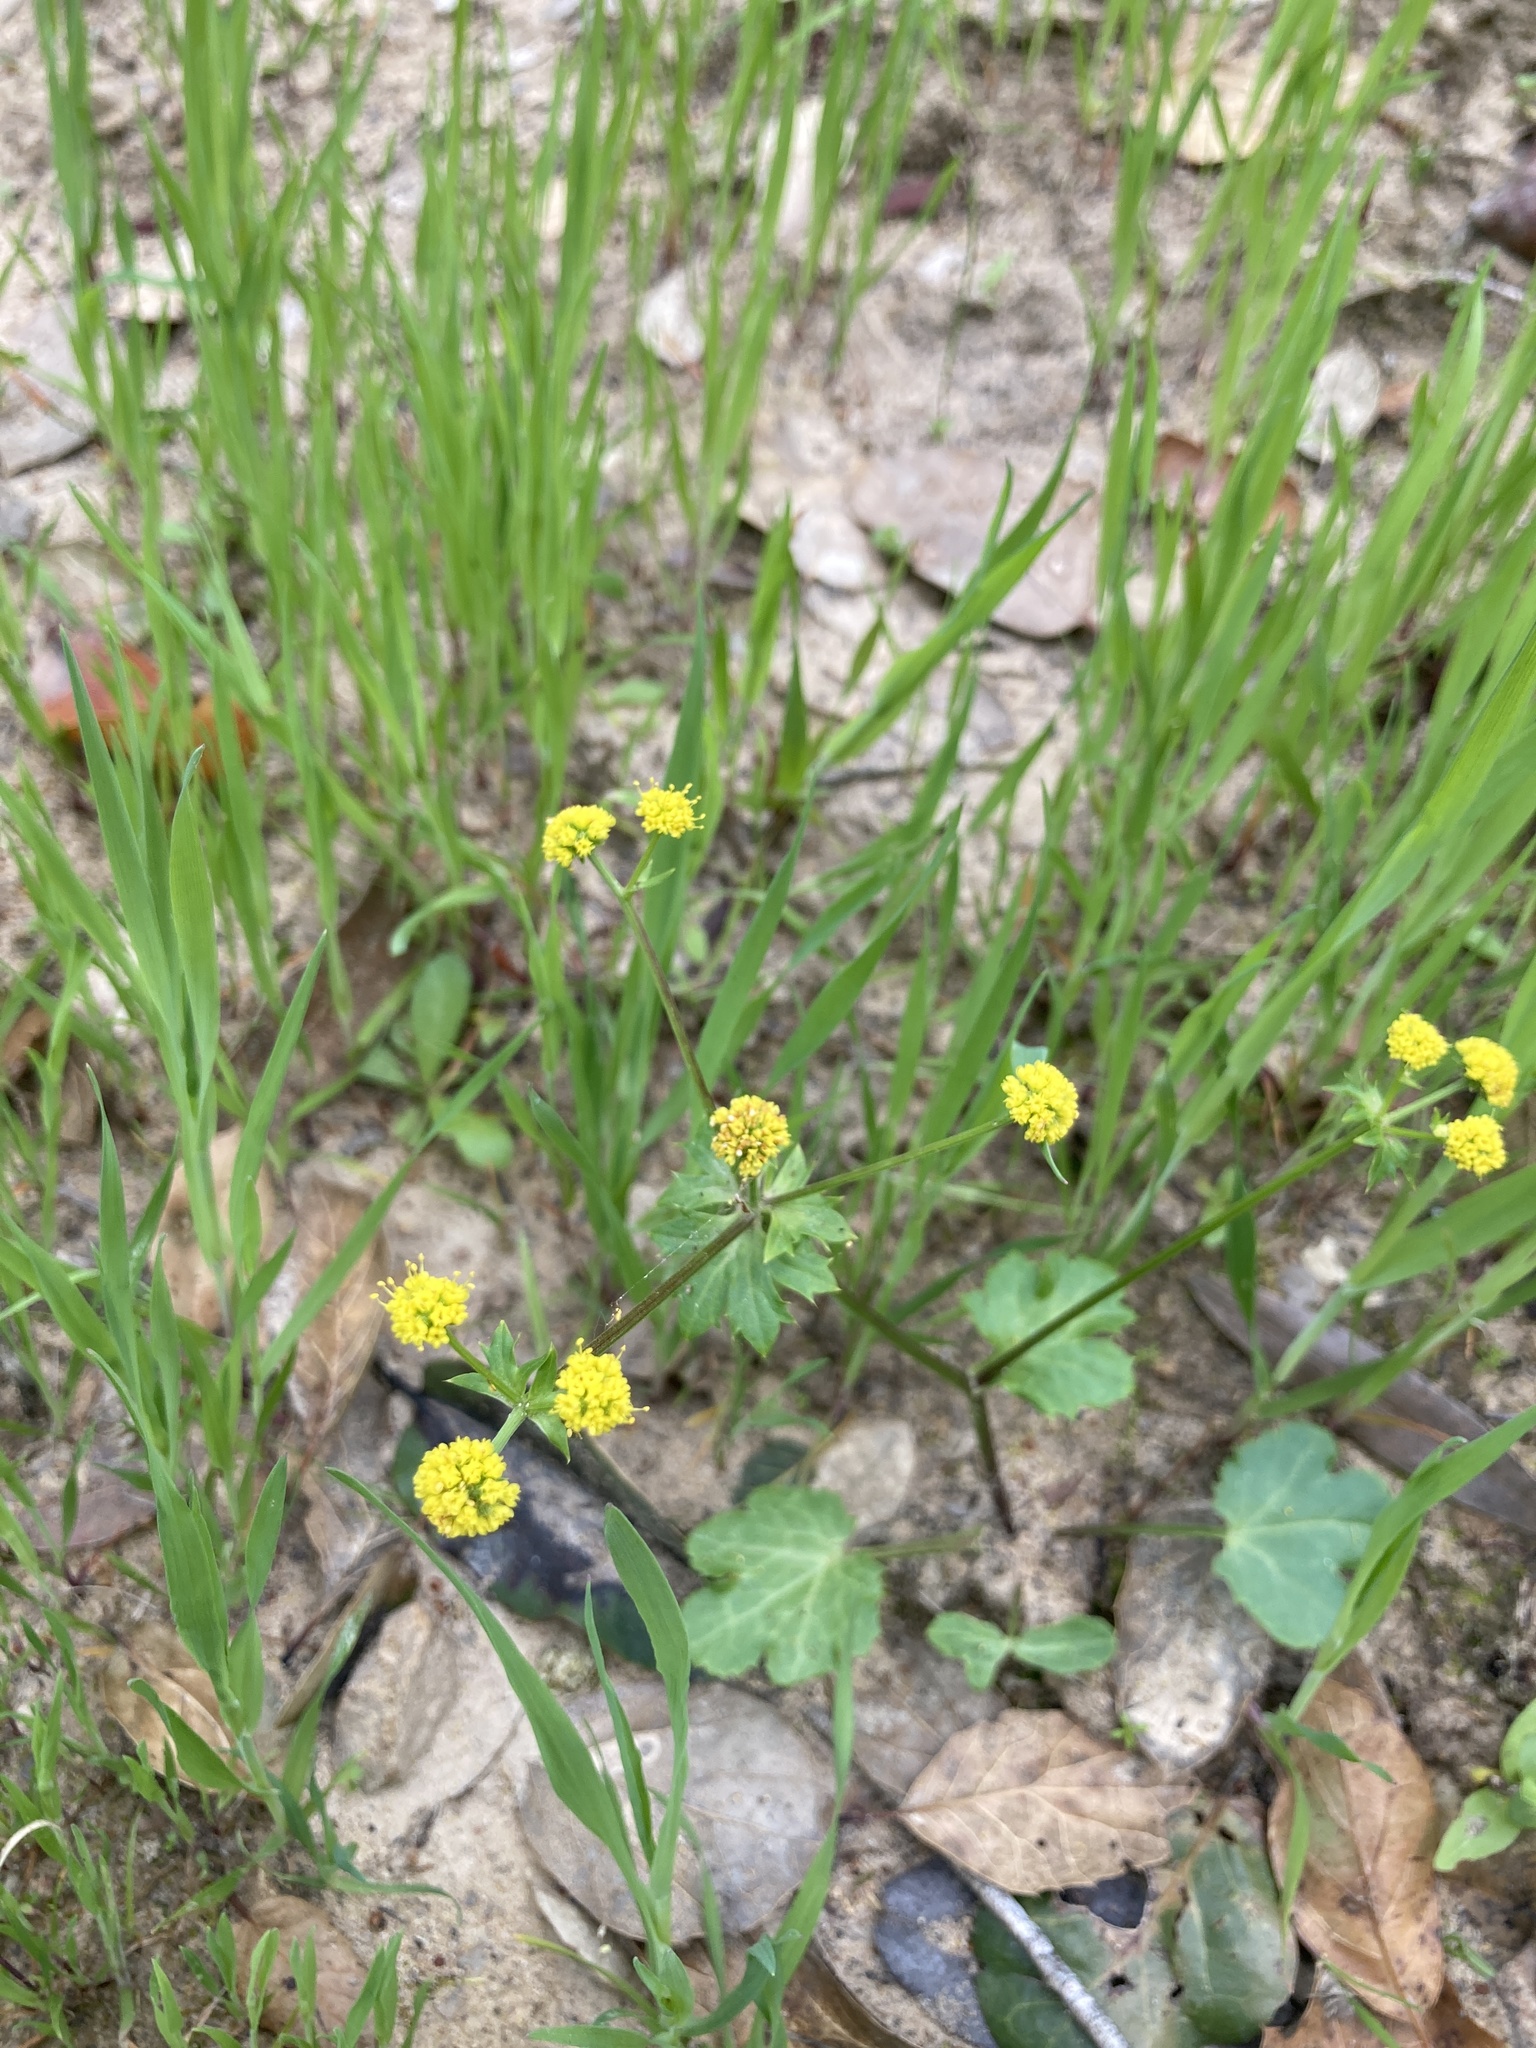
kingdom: Plantae
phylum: Tracheophyta
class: Magnoliopsida
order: Apiales
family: Apiaceae
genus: Sanicula
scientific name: Sanicula laciniata
